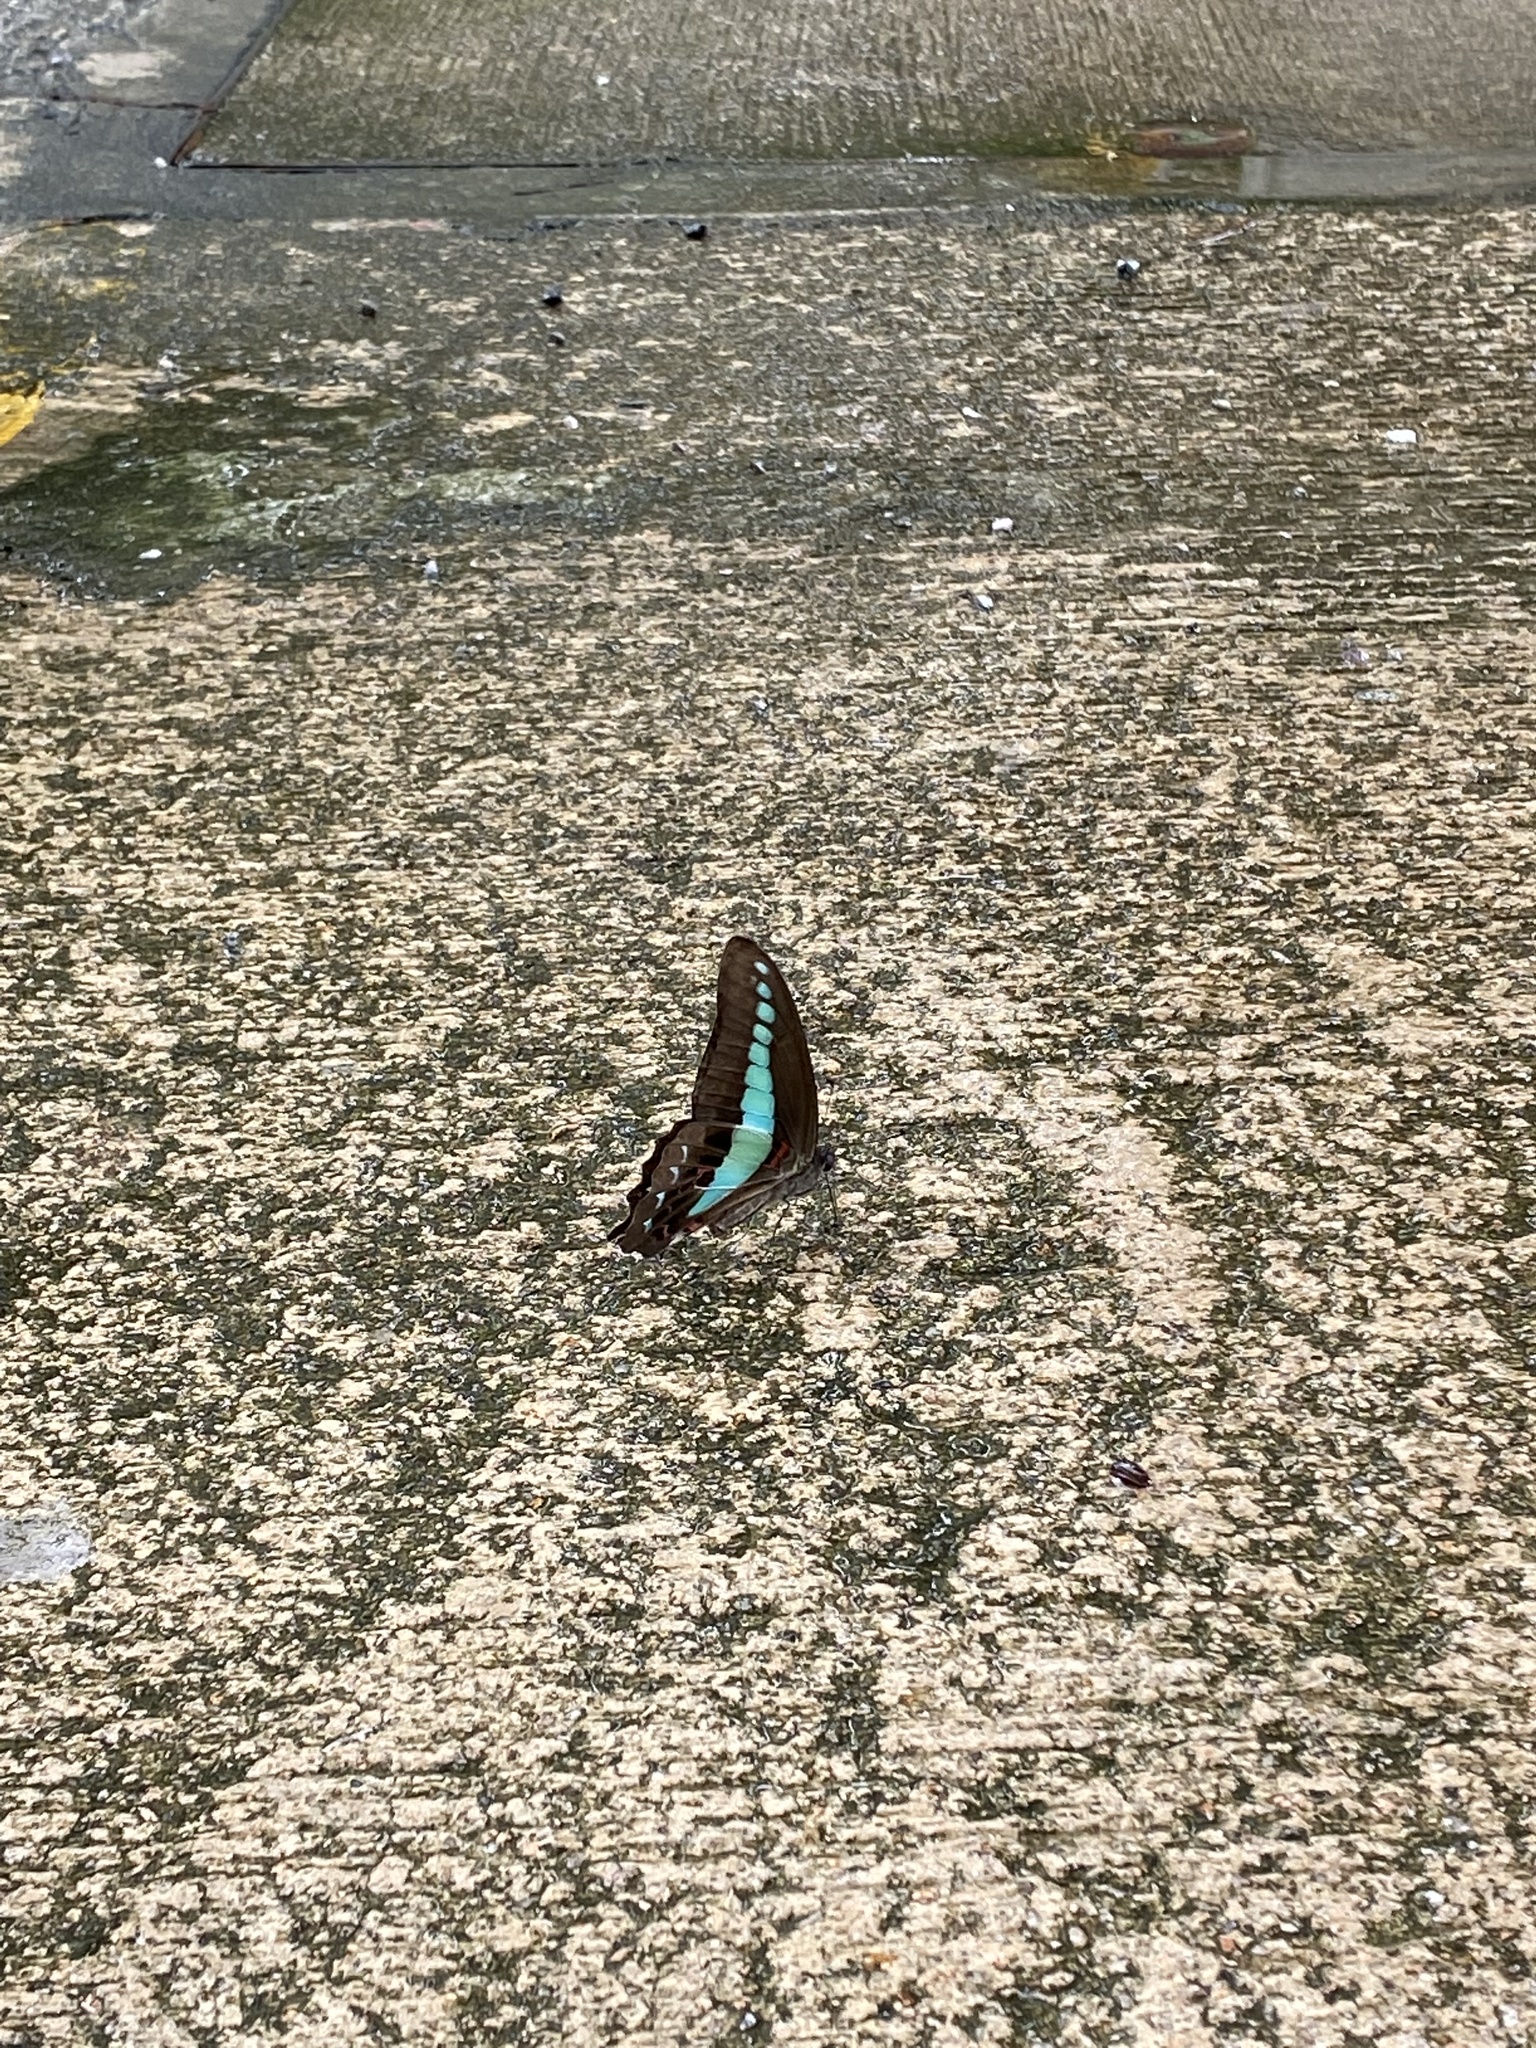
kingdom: Fungi
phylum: Ascomycota
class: Sordariomycetes
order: Microascales
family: Microascaceae
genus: Graphium
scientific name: Graphium sarpedon
